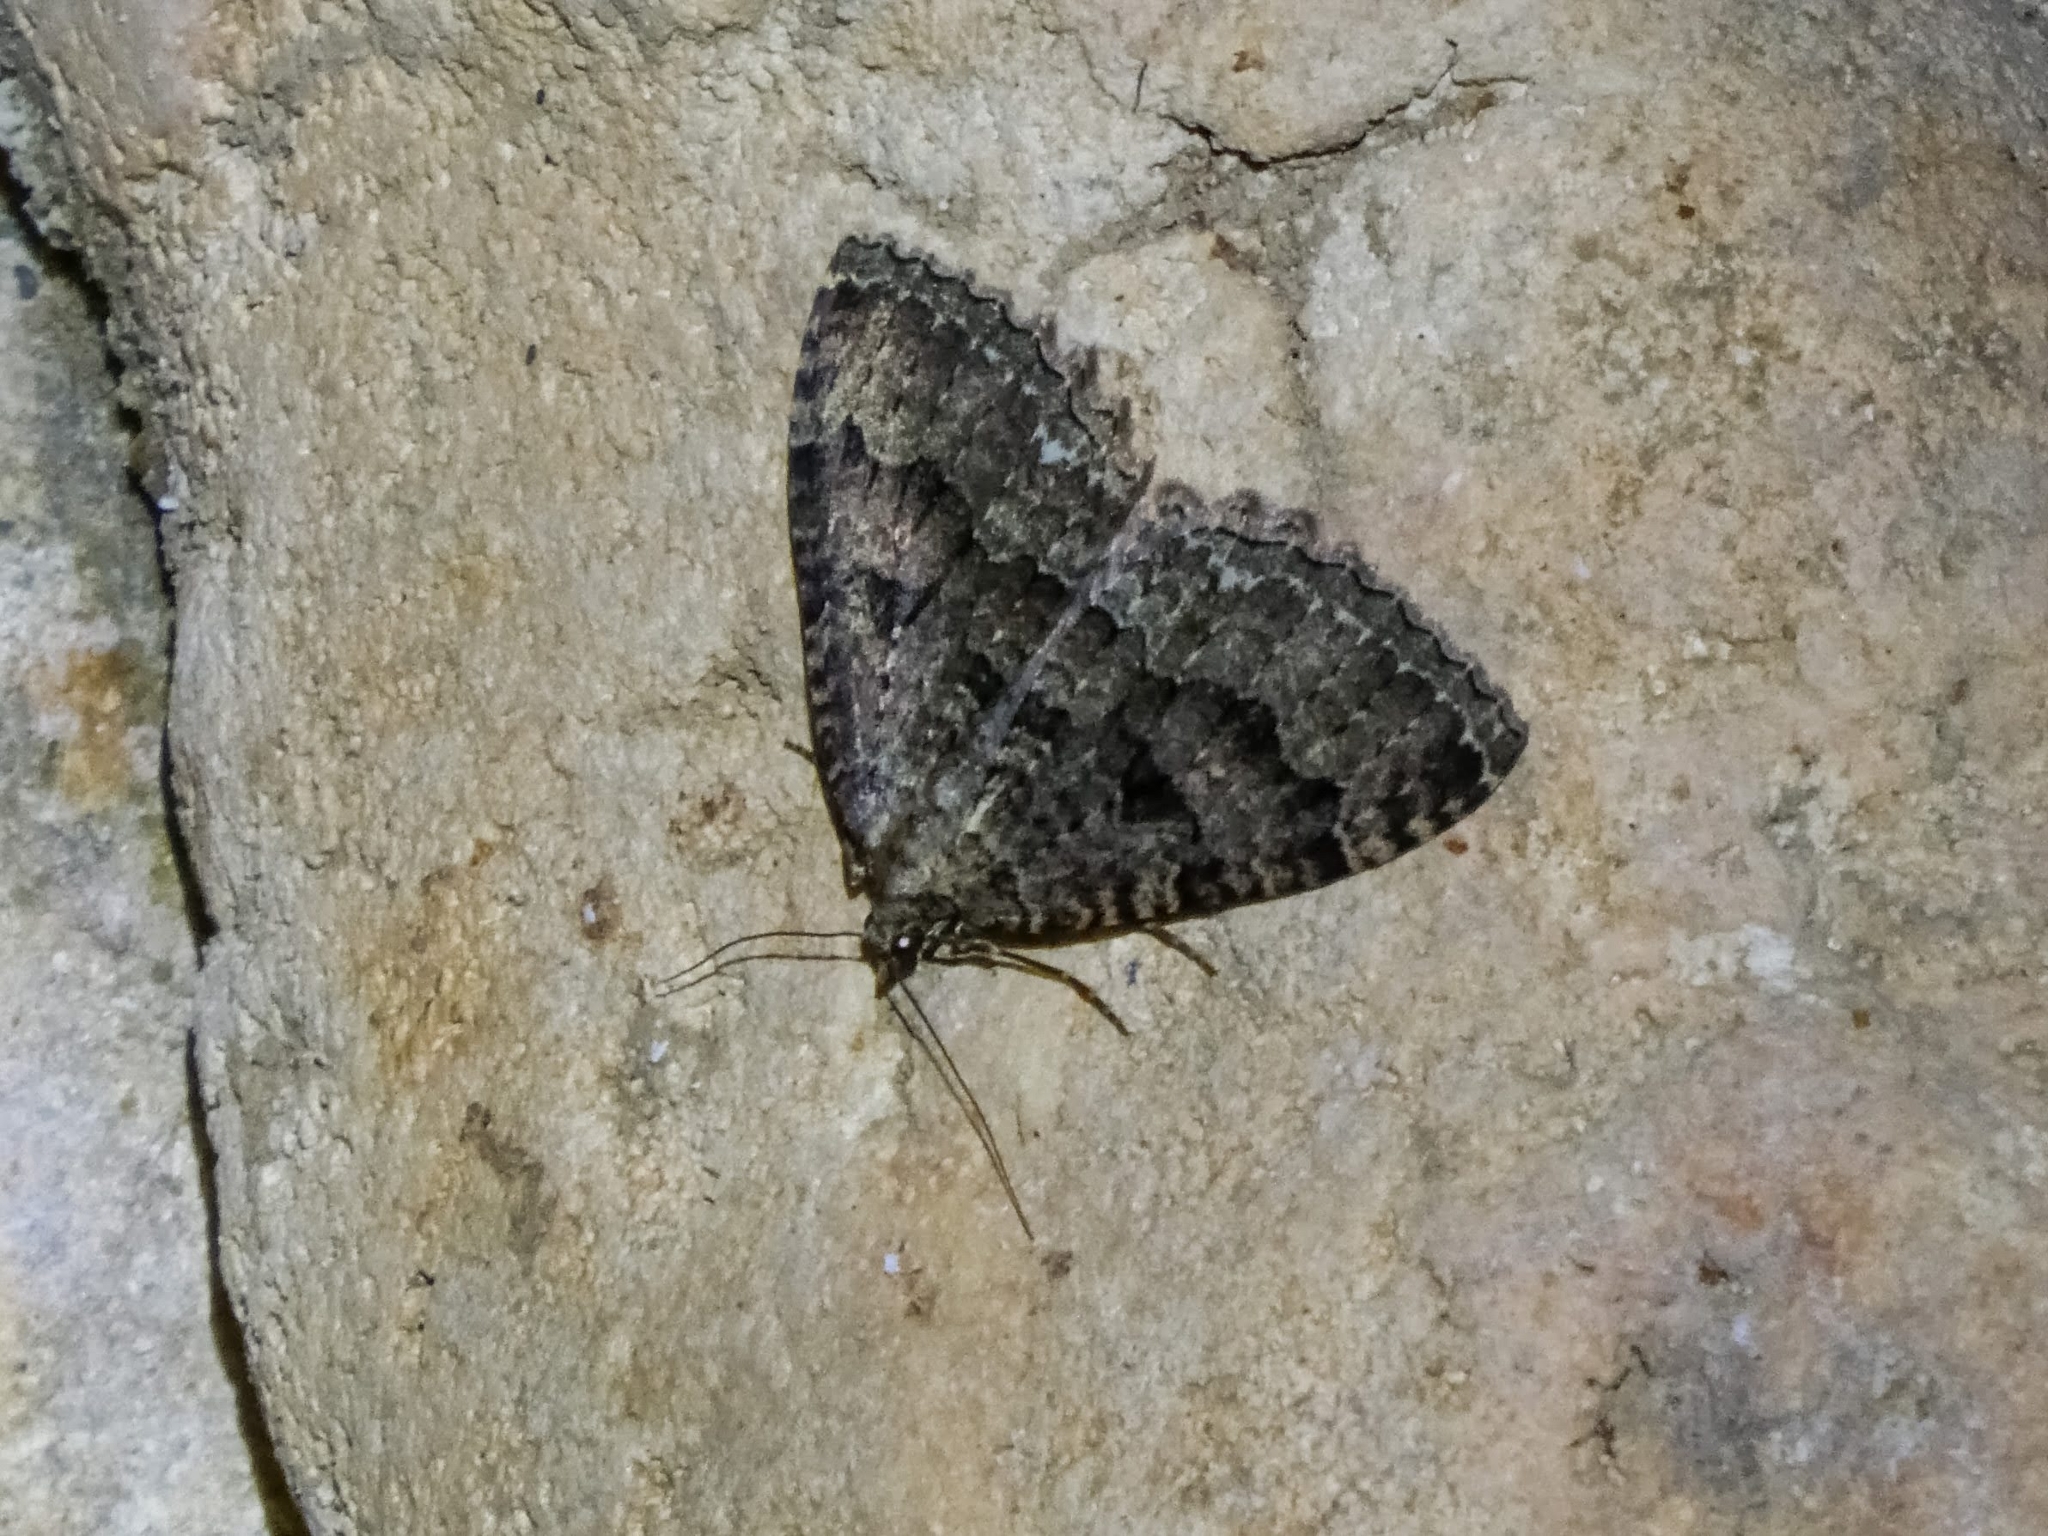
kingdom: Animalia
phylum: Arthropoda
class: Insecta
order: Lepidoptera
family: Geometridae
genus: Triphosa
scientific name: Triphosa dubitata
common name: Tissue
